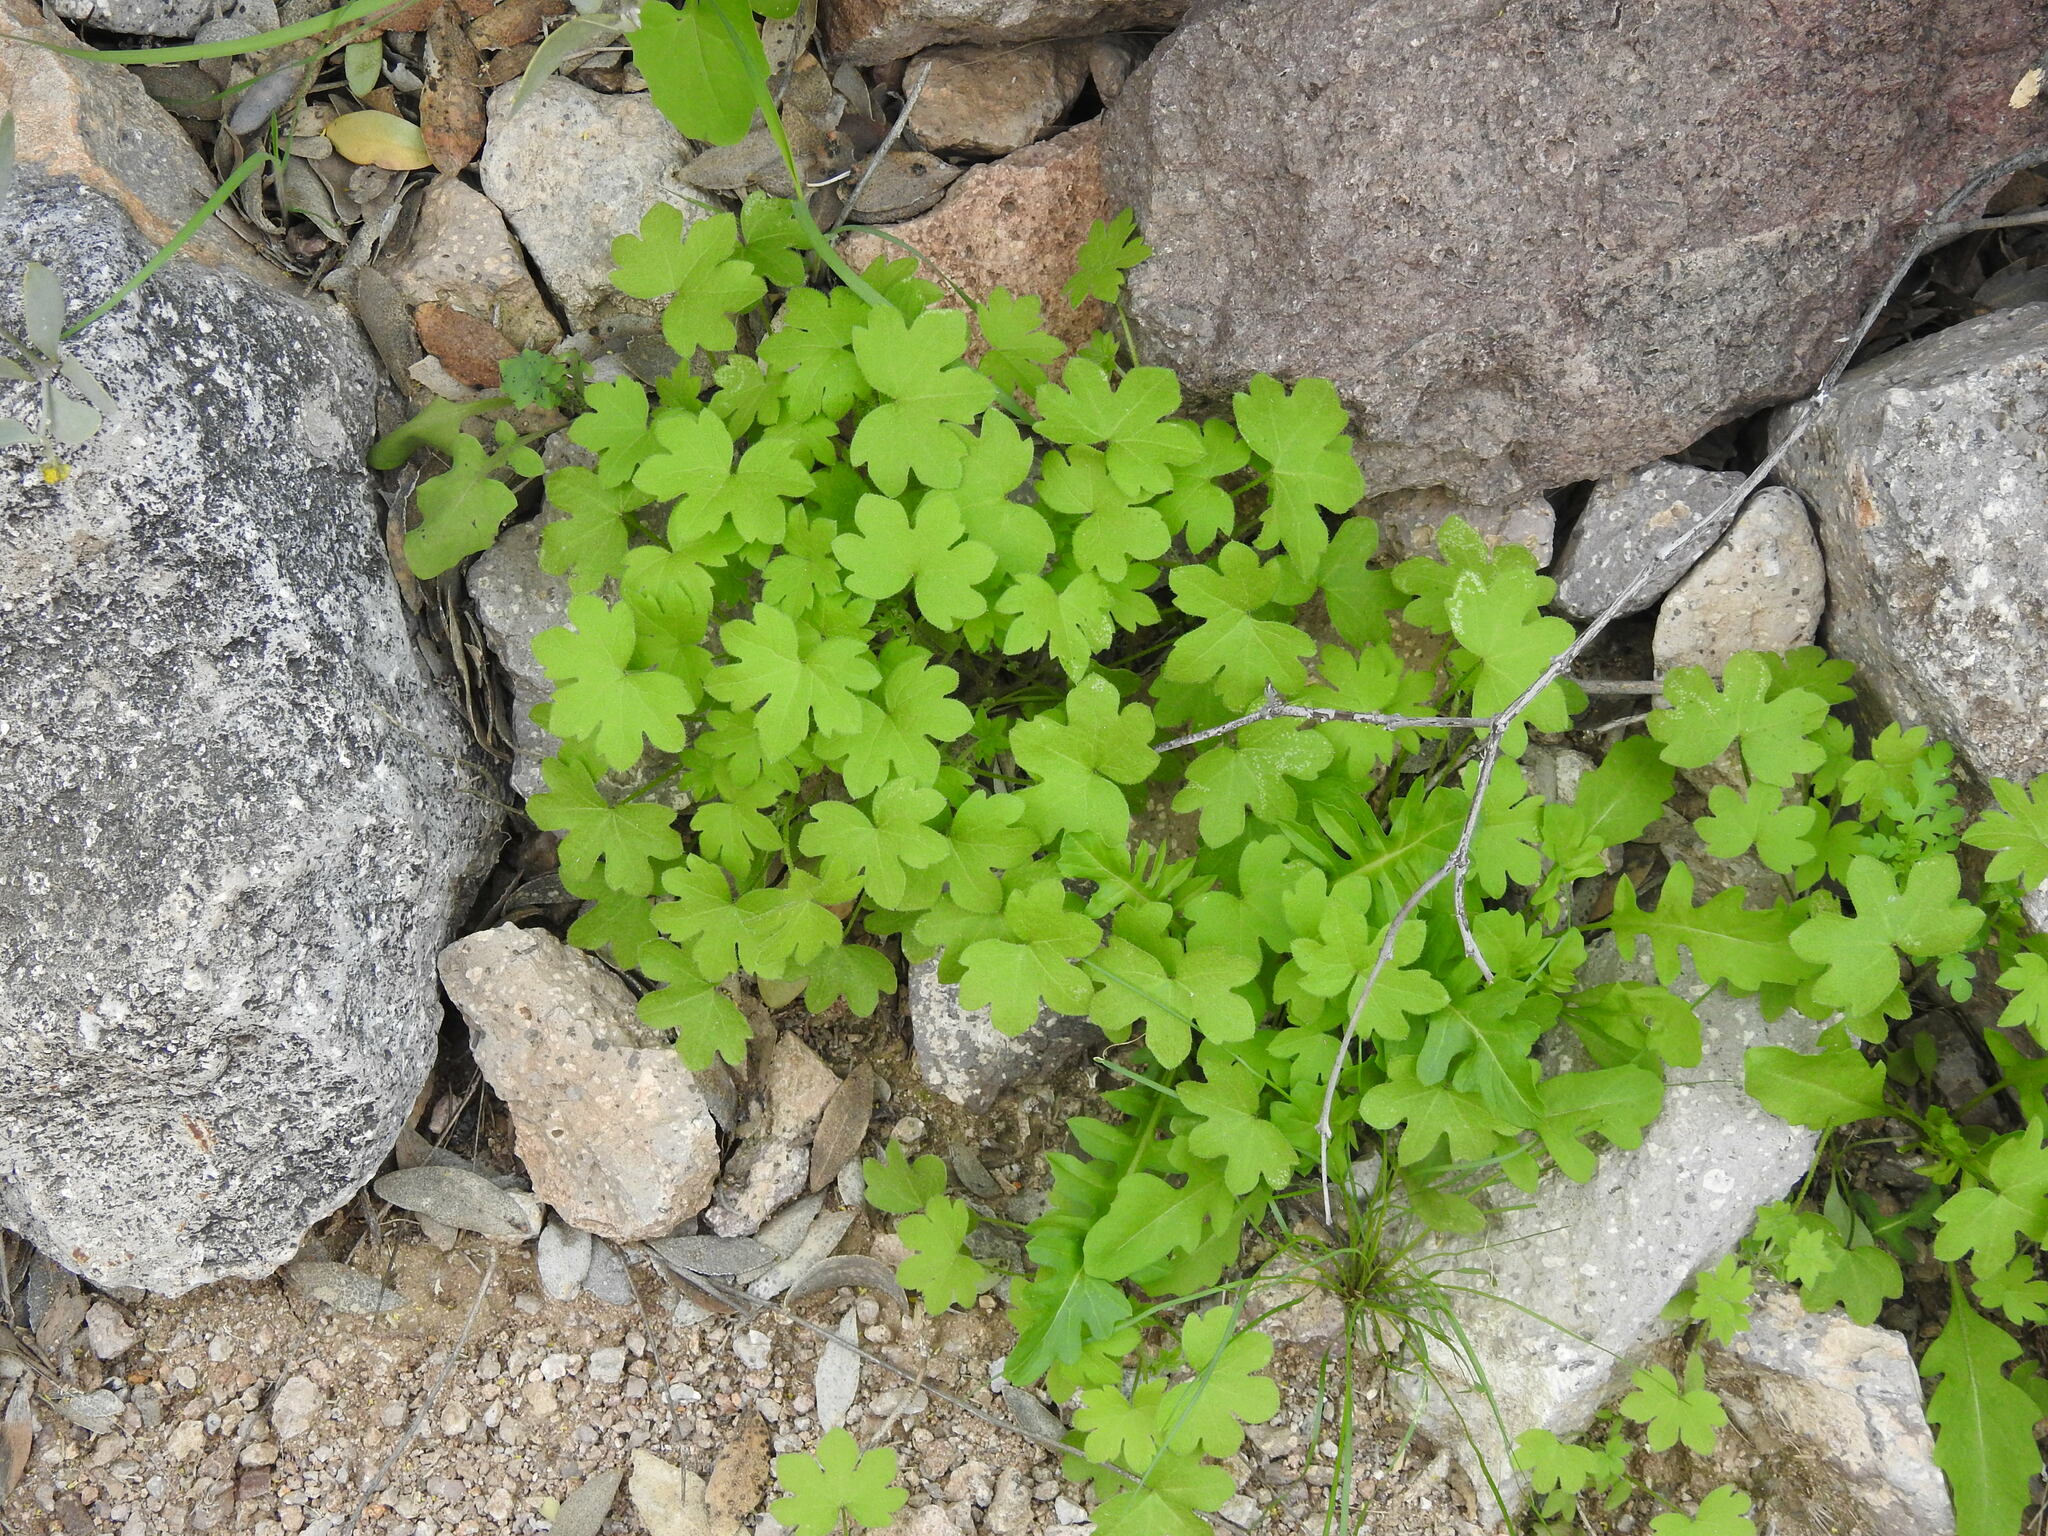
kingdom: Plantae
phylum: Tracheophyta
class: Magnoliopsida
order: Apiales
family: Apiaceae
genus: Bowlesia
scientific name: Bowlesia incana
